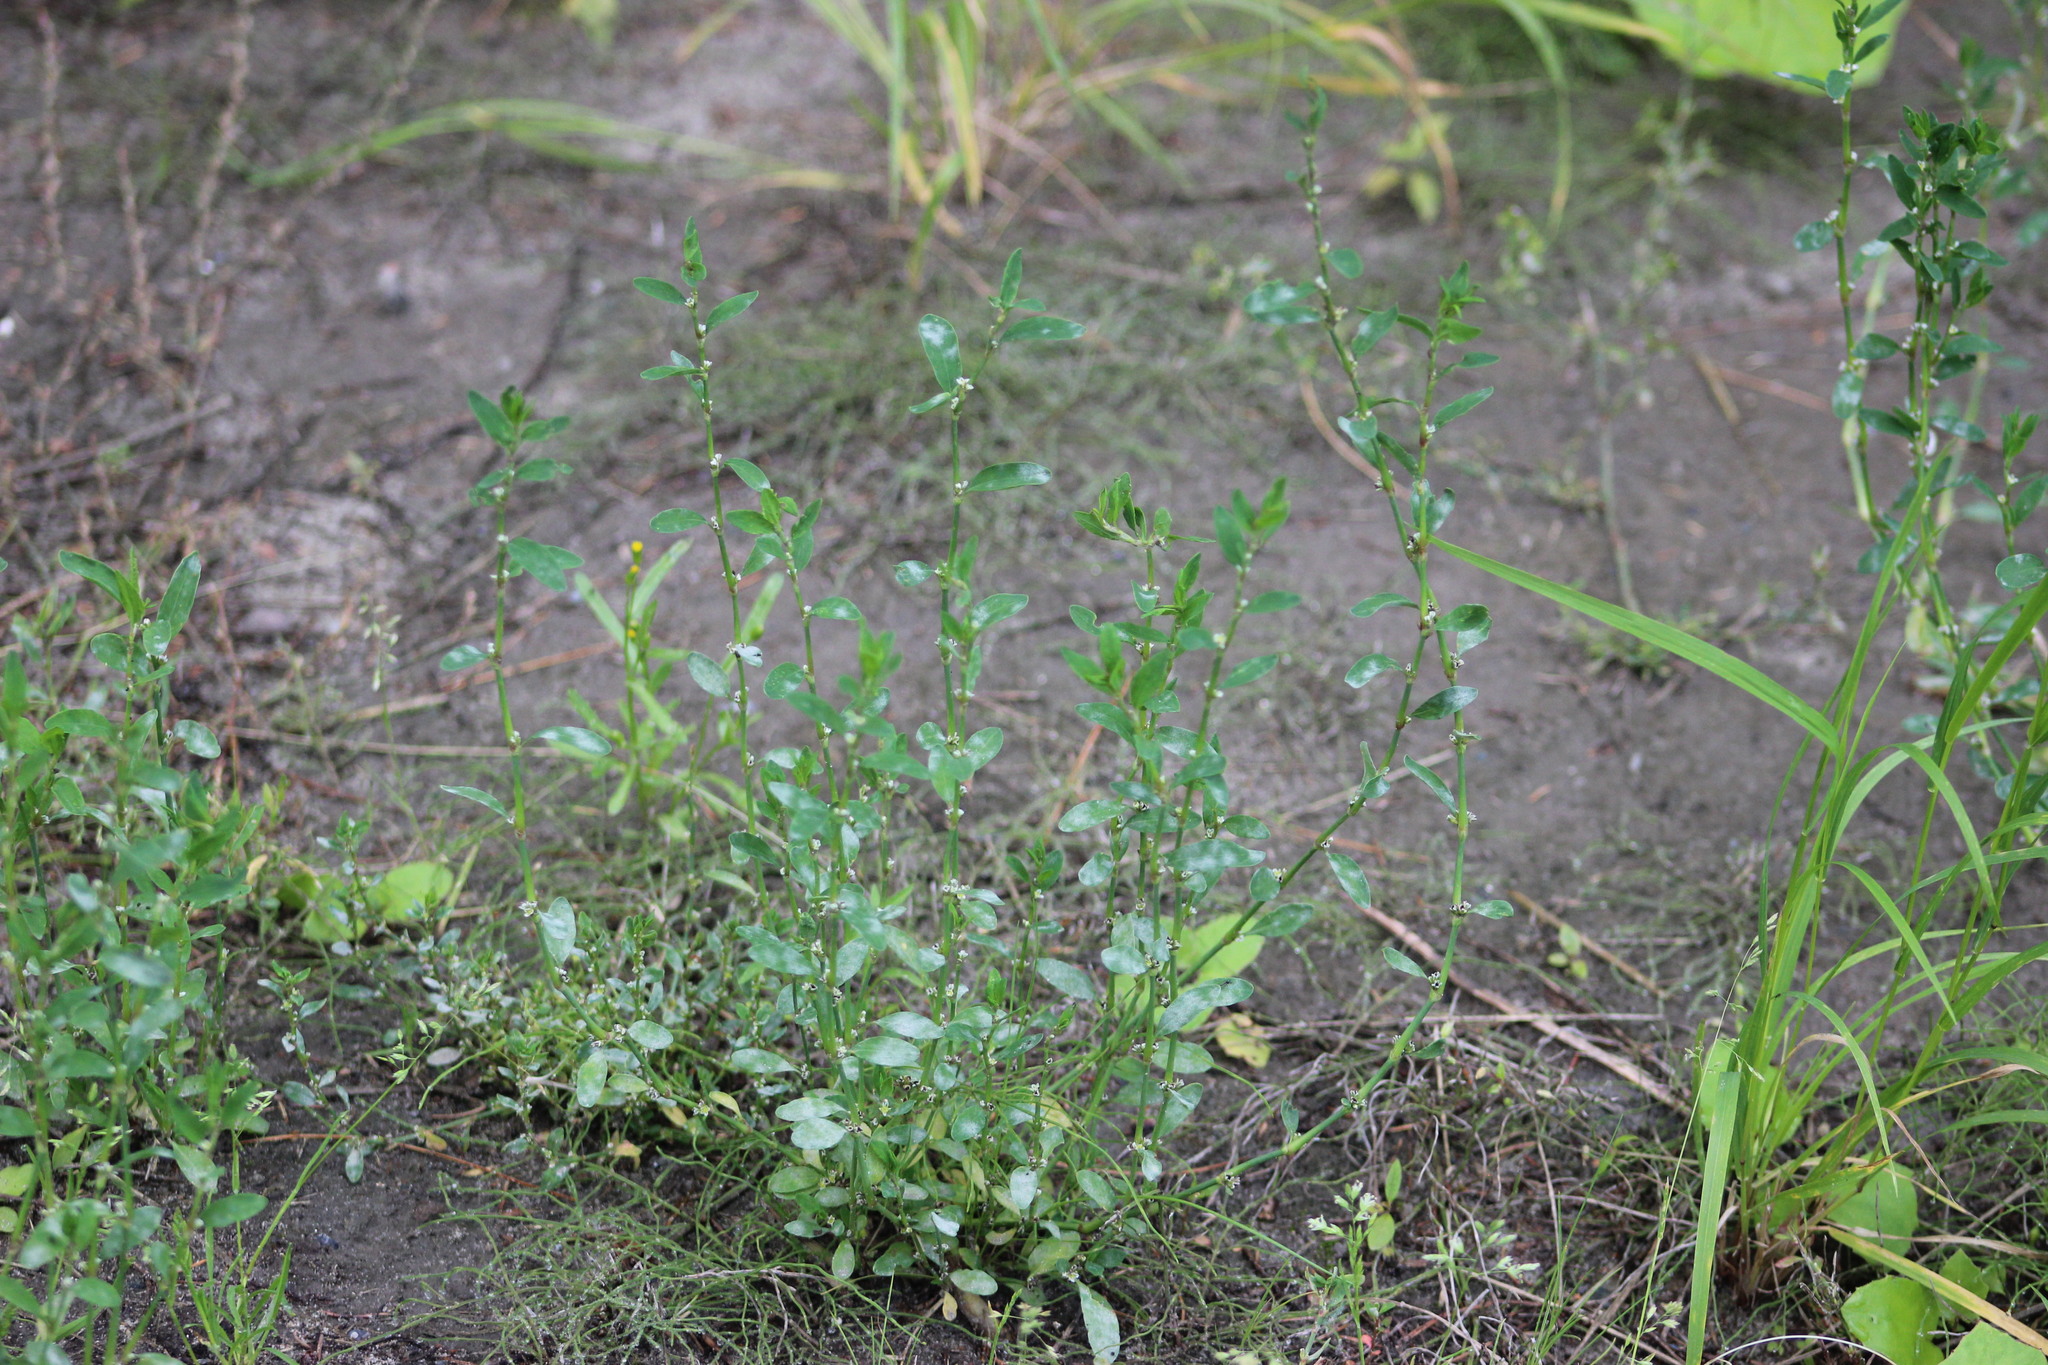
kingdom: Plantae
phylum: Tracheophyta
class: Magnoliopsida
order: Caryophyllales
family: Polygonaceae
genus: Polygonum
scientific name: Polygonum
